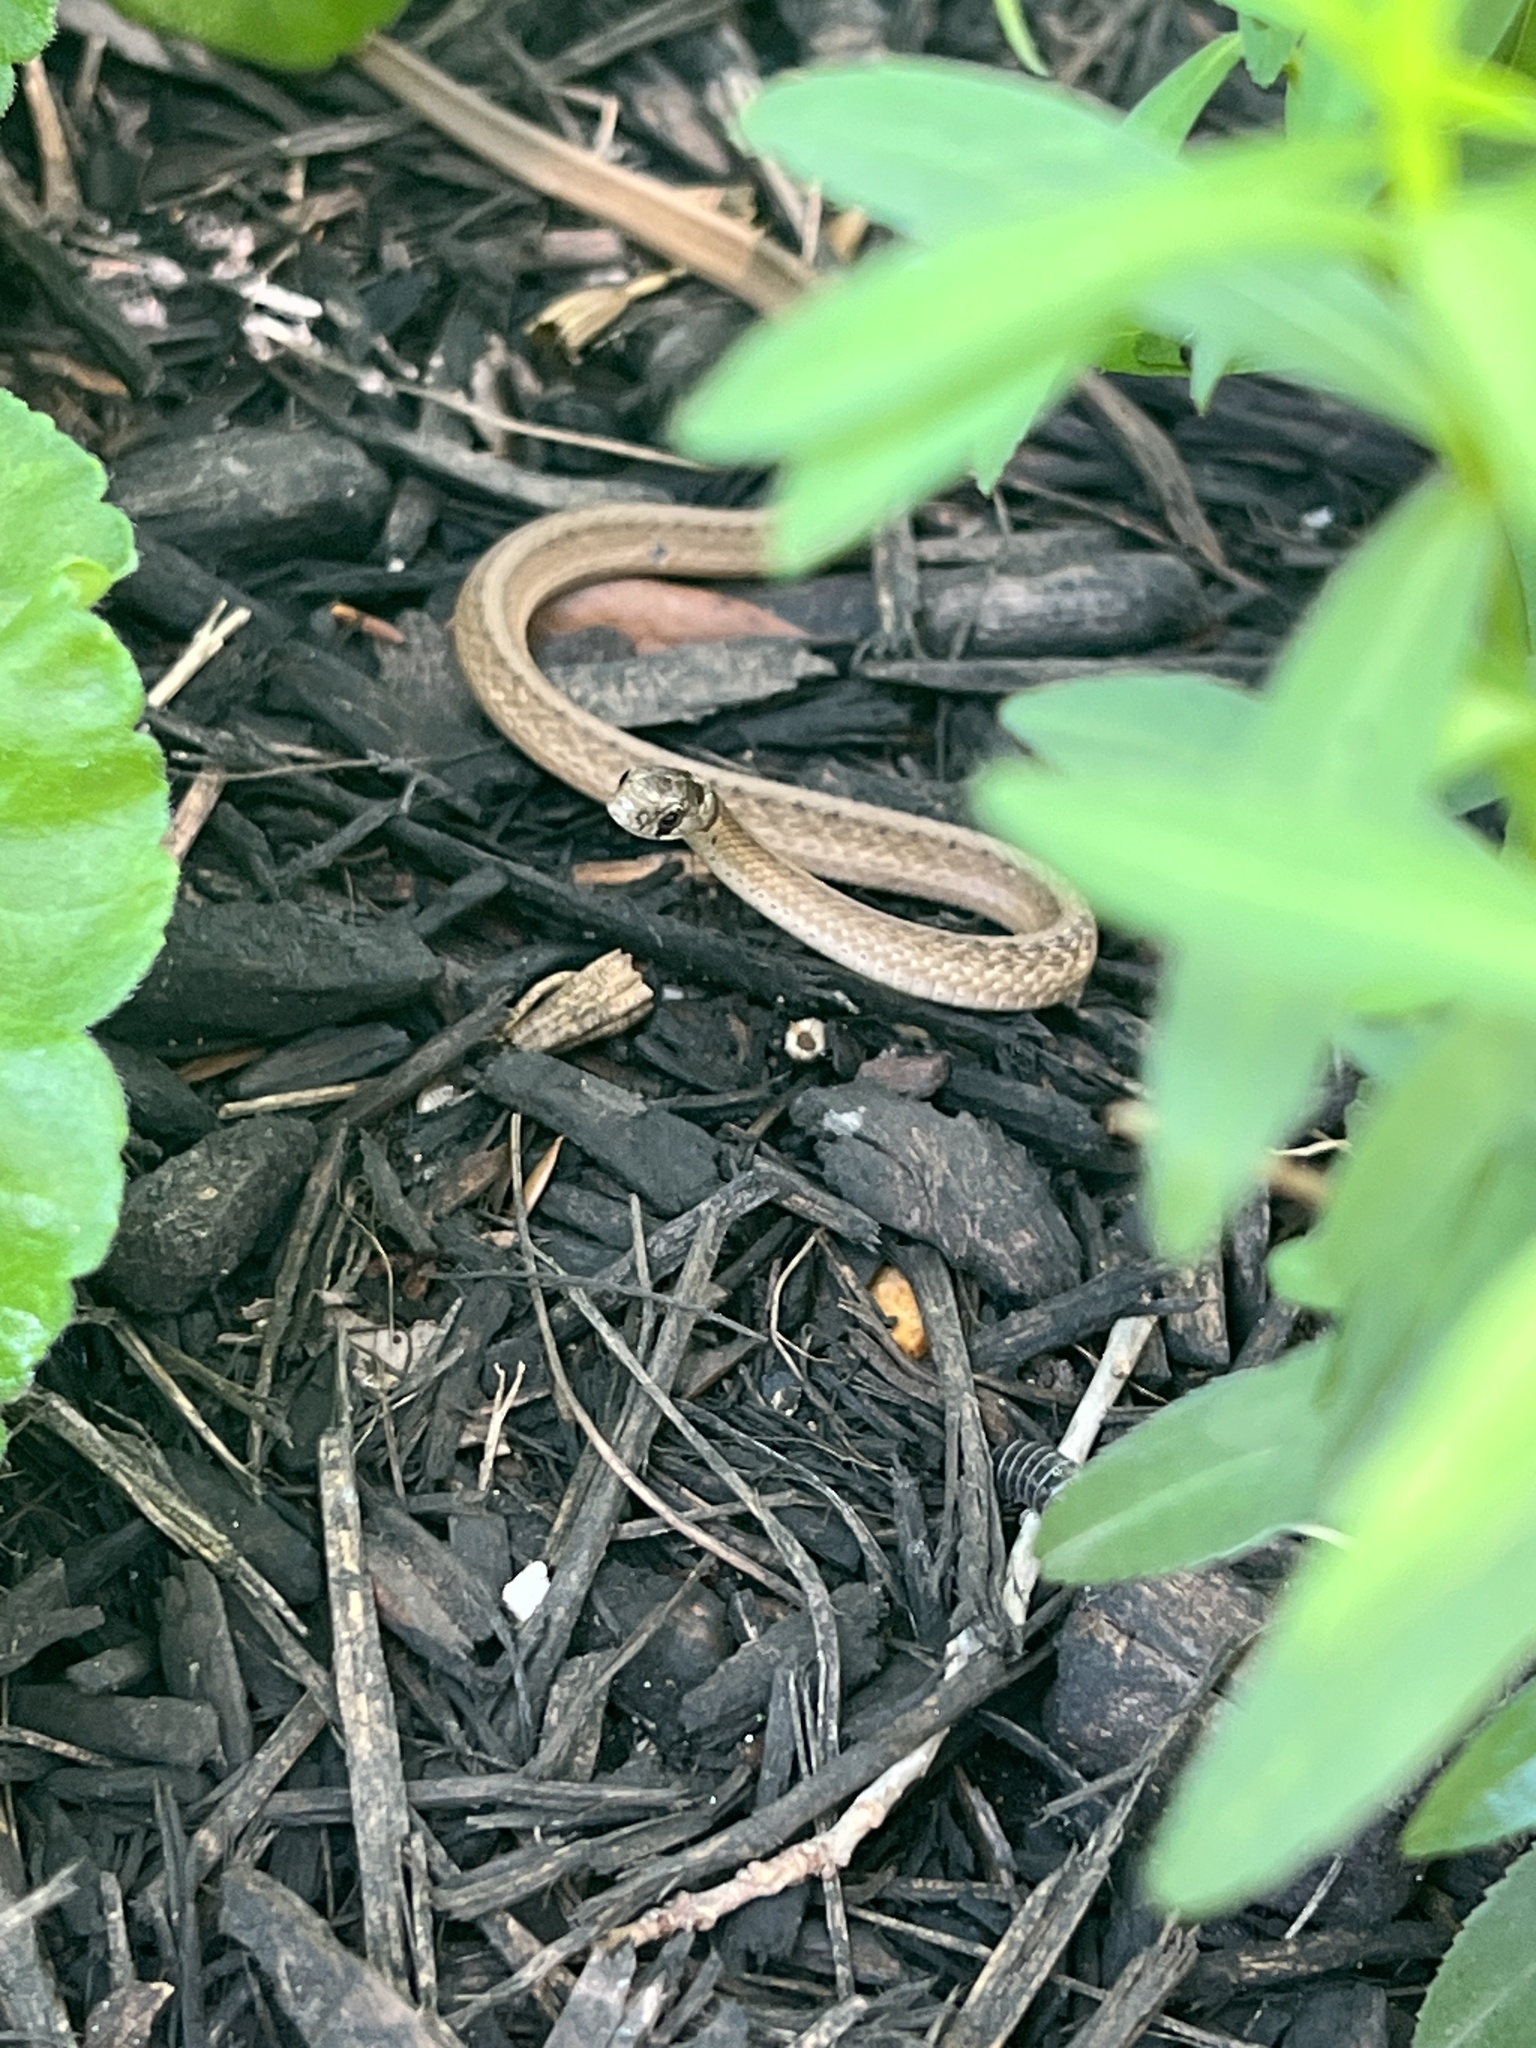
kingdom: Animalia
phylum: Chordata
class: Squamata
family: Colubridae
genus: Storeria
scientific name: Storeria dekayi
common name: (dekay’s) brown snake
